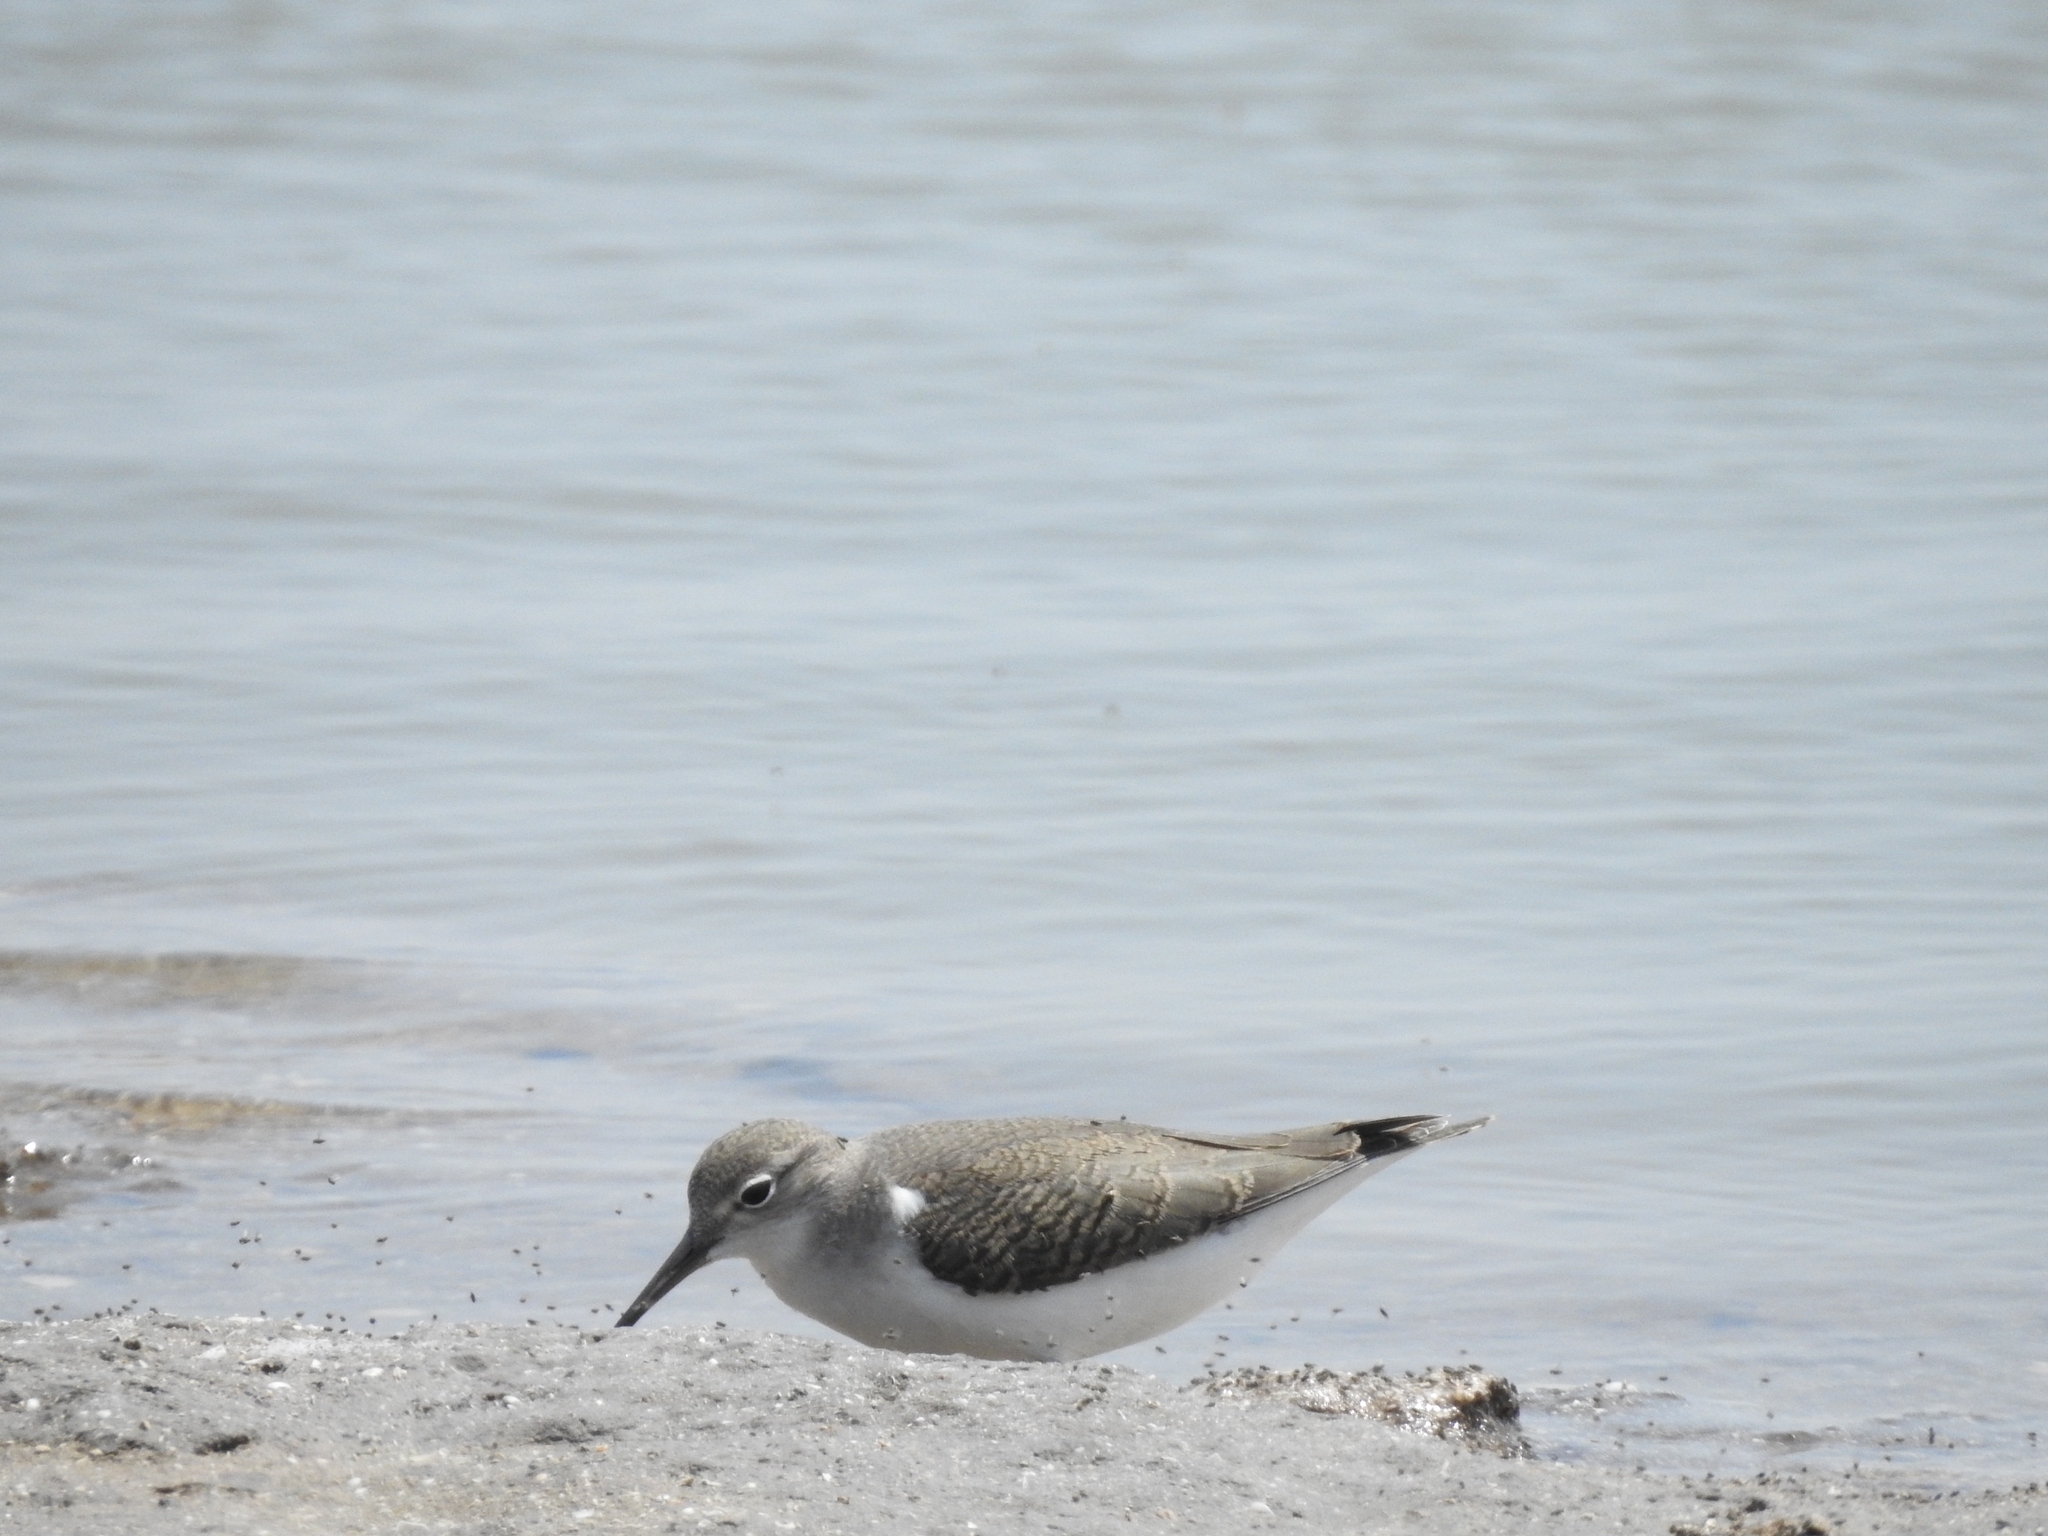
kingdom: Animalia
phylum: Chordata
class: Aves
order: Charadriiformes
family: Scolopacidae
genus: Actitis
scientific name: Actitis macularius
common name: Spotted sandpiper
